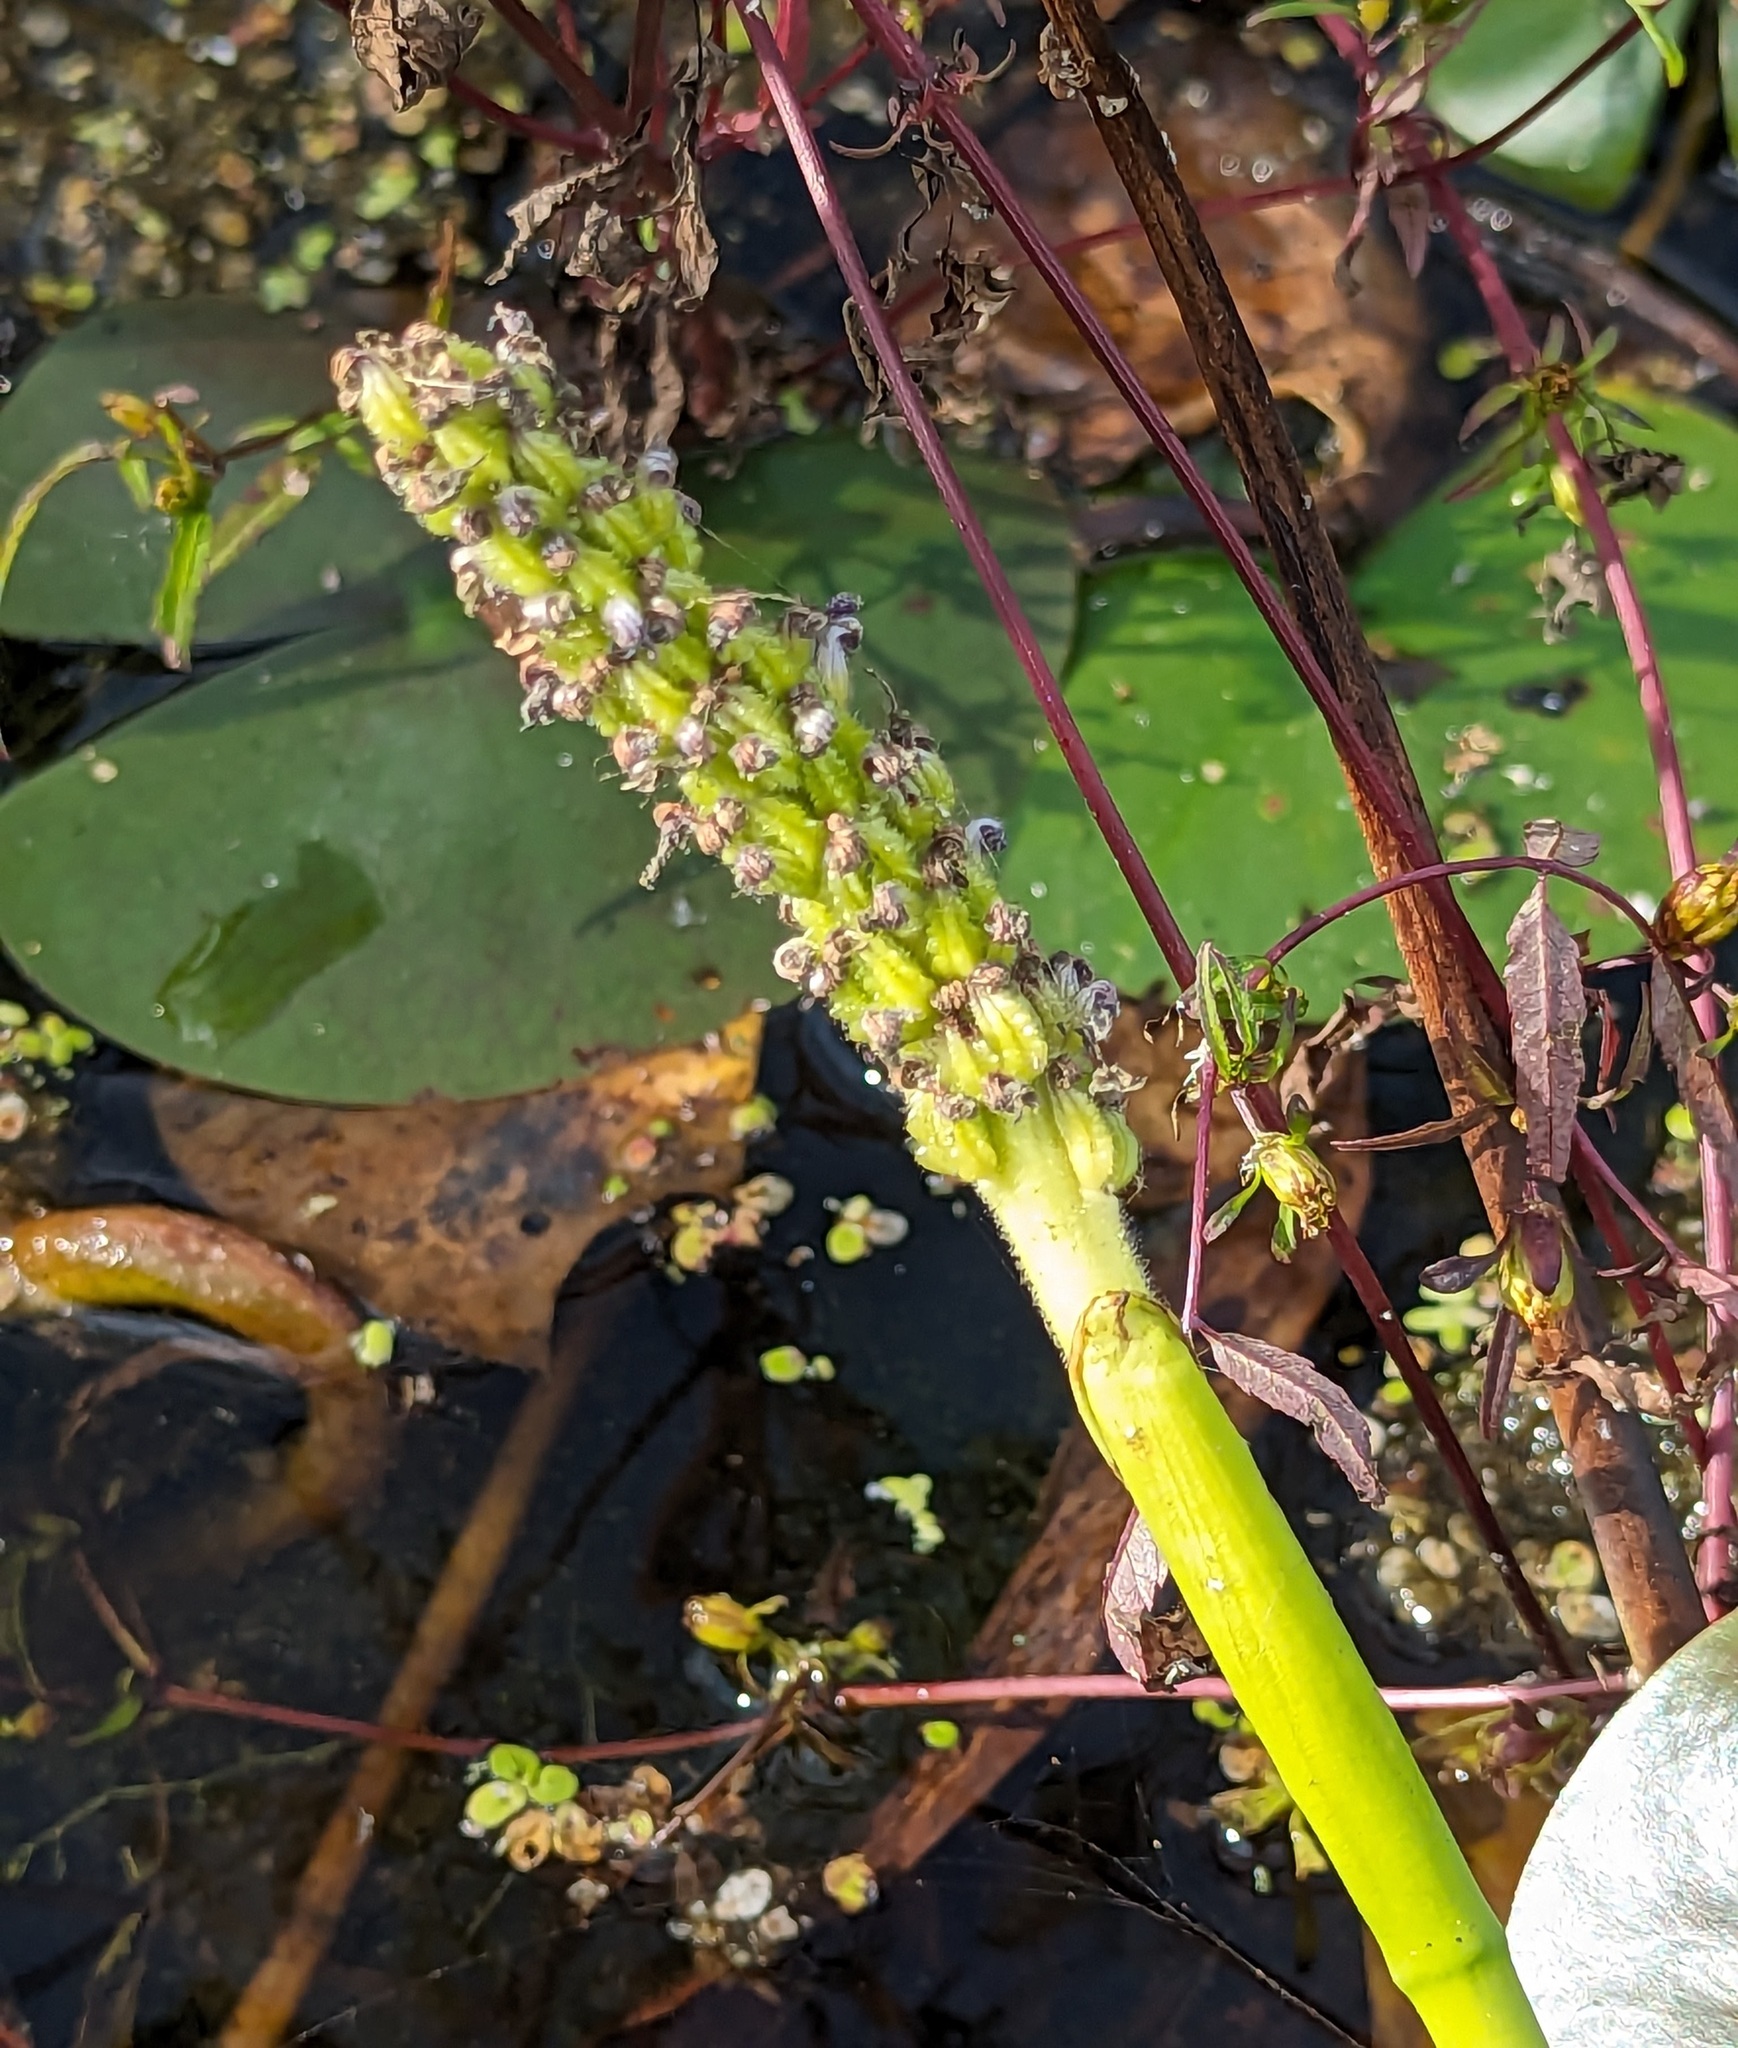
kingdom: Plantae
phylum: Tracheophyta
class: Liliopsida
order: Commelinales
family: Pontederiaceae
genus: Pontederia
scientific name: Pontederia cordata
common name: Pickerelweed
